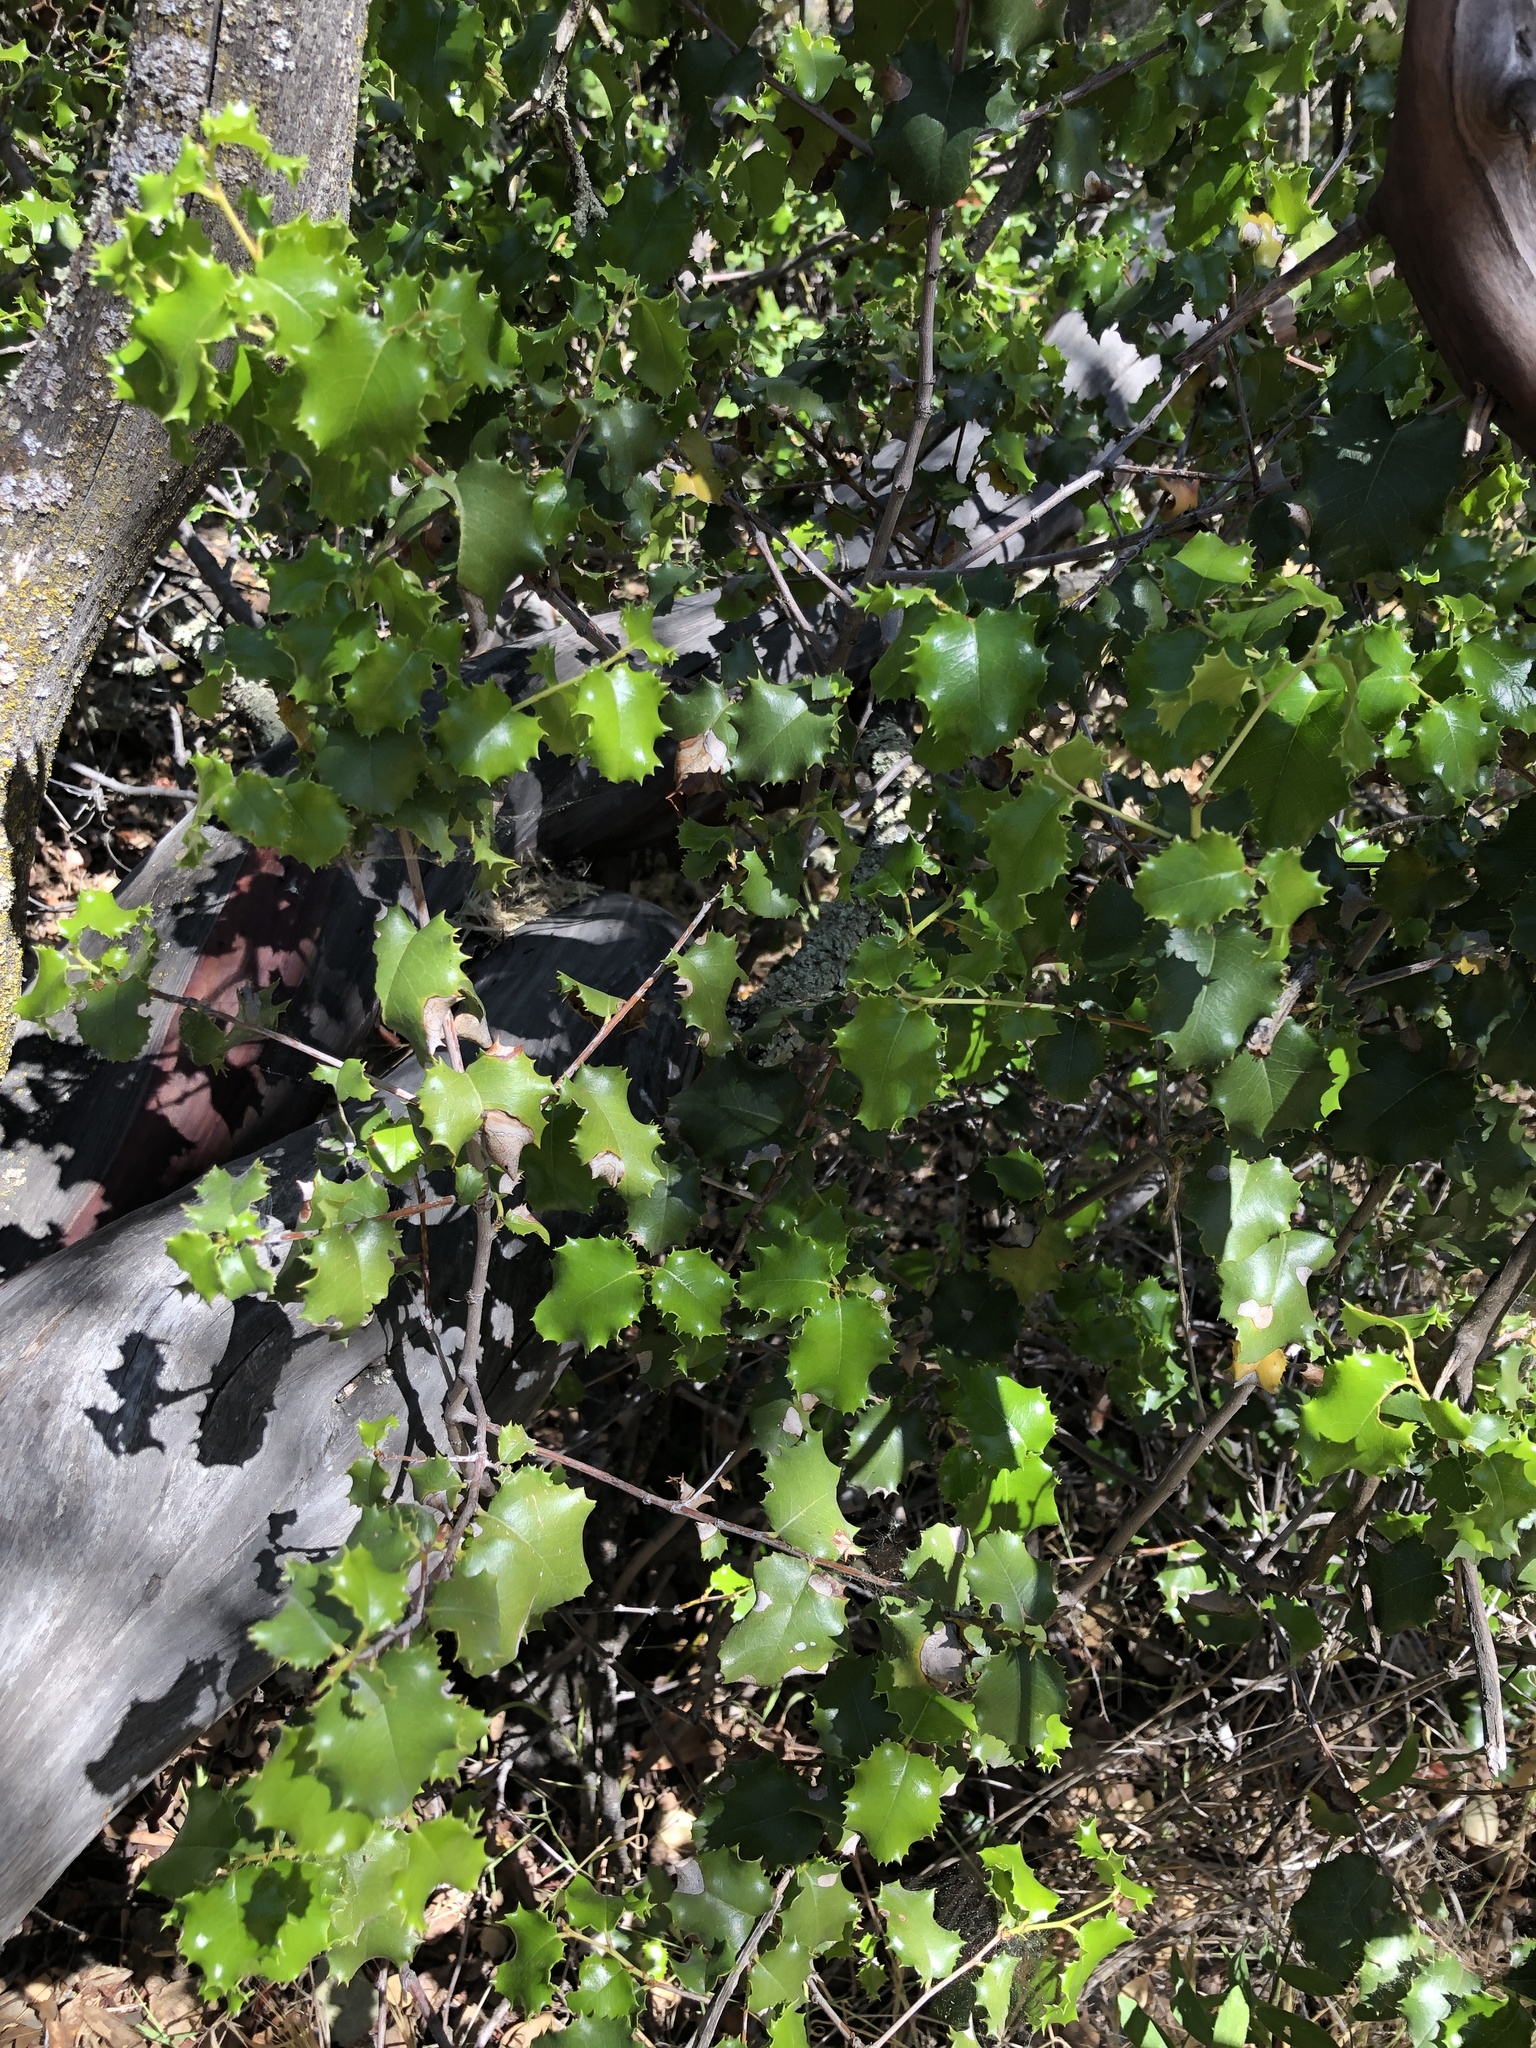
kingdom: Plantae
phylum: Tracheophyta
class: Magnoliopsida
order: Rosales
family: Rosaceae
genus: Prunus
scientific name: Prunus ilicifolia
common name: Hollyleaf cherry
